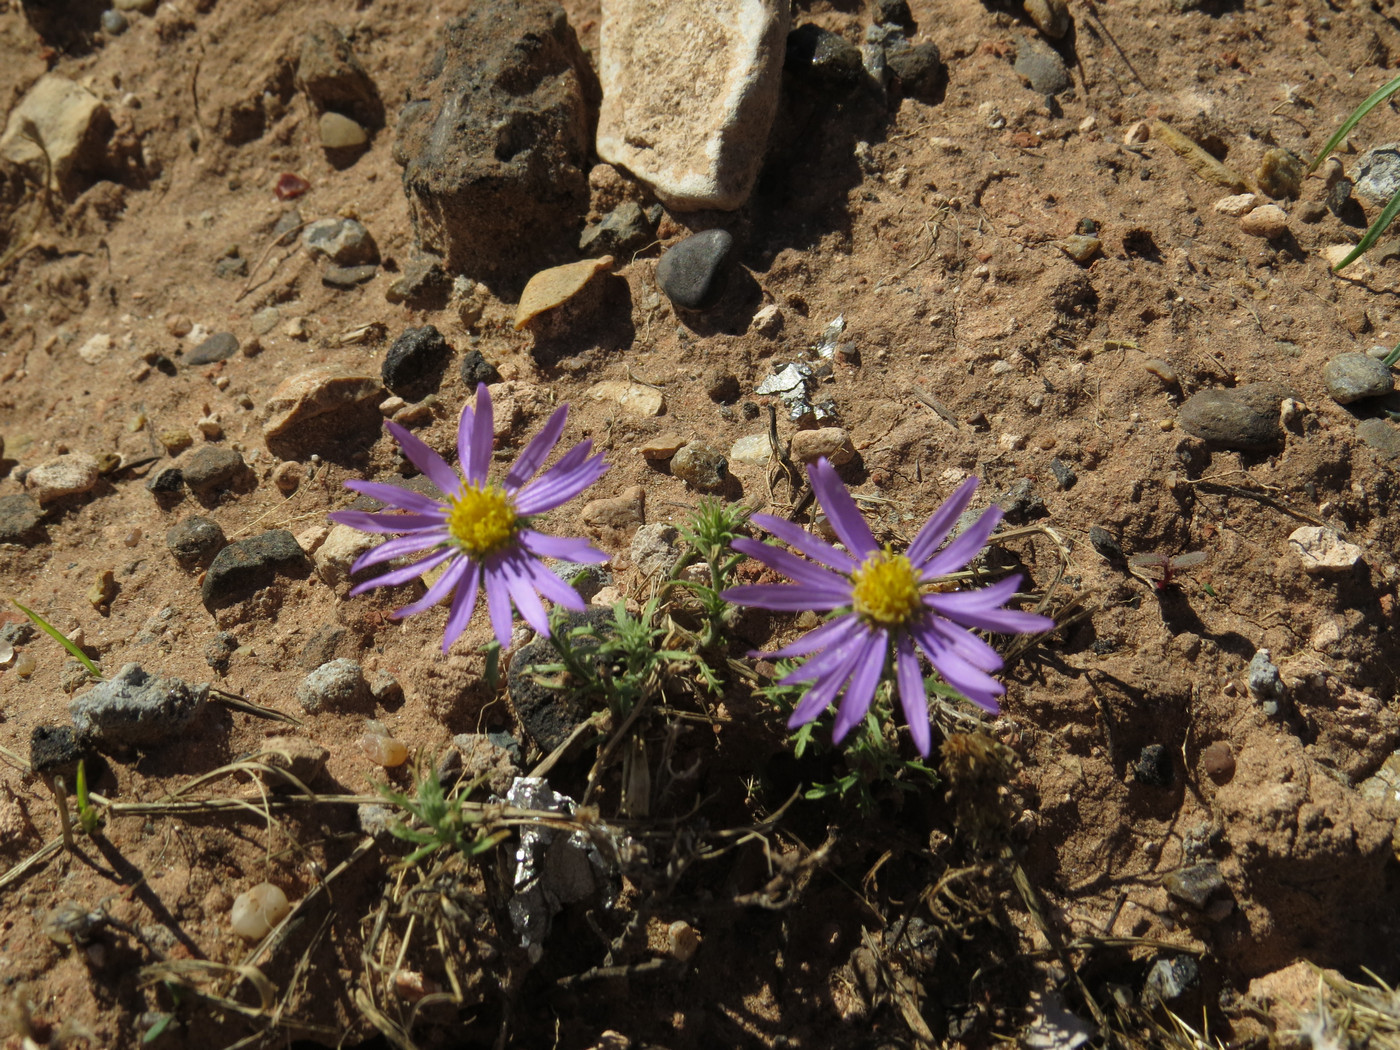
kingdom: Plantae
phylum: Tracheophyta
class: Magnoliopsida
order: Asterales
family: Asteraceae
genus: Machaeranthera
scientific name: Machaeranthera tanacetifolia
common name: Tansy-aster
